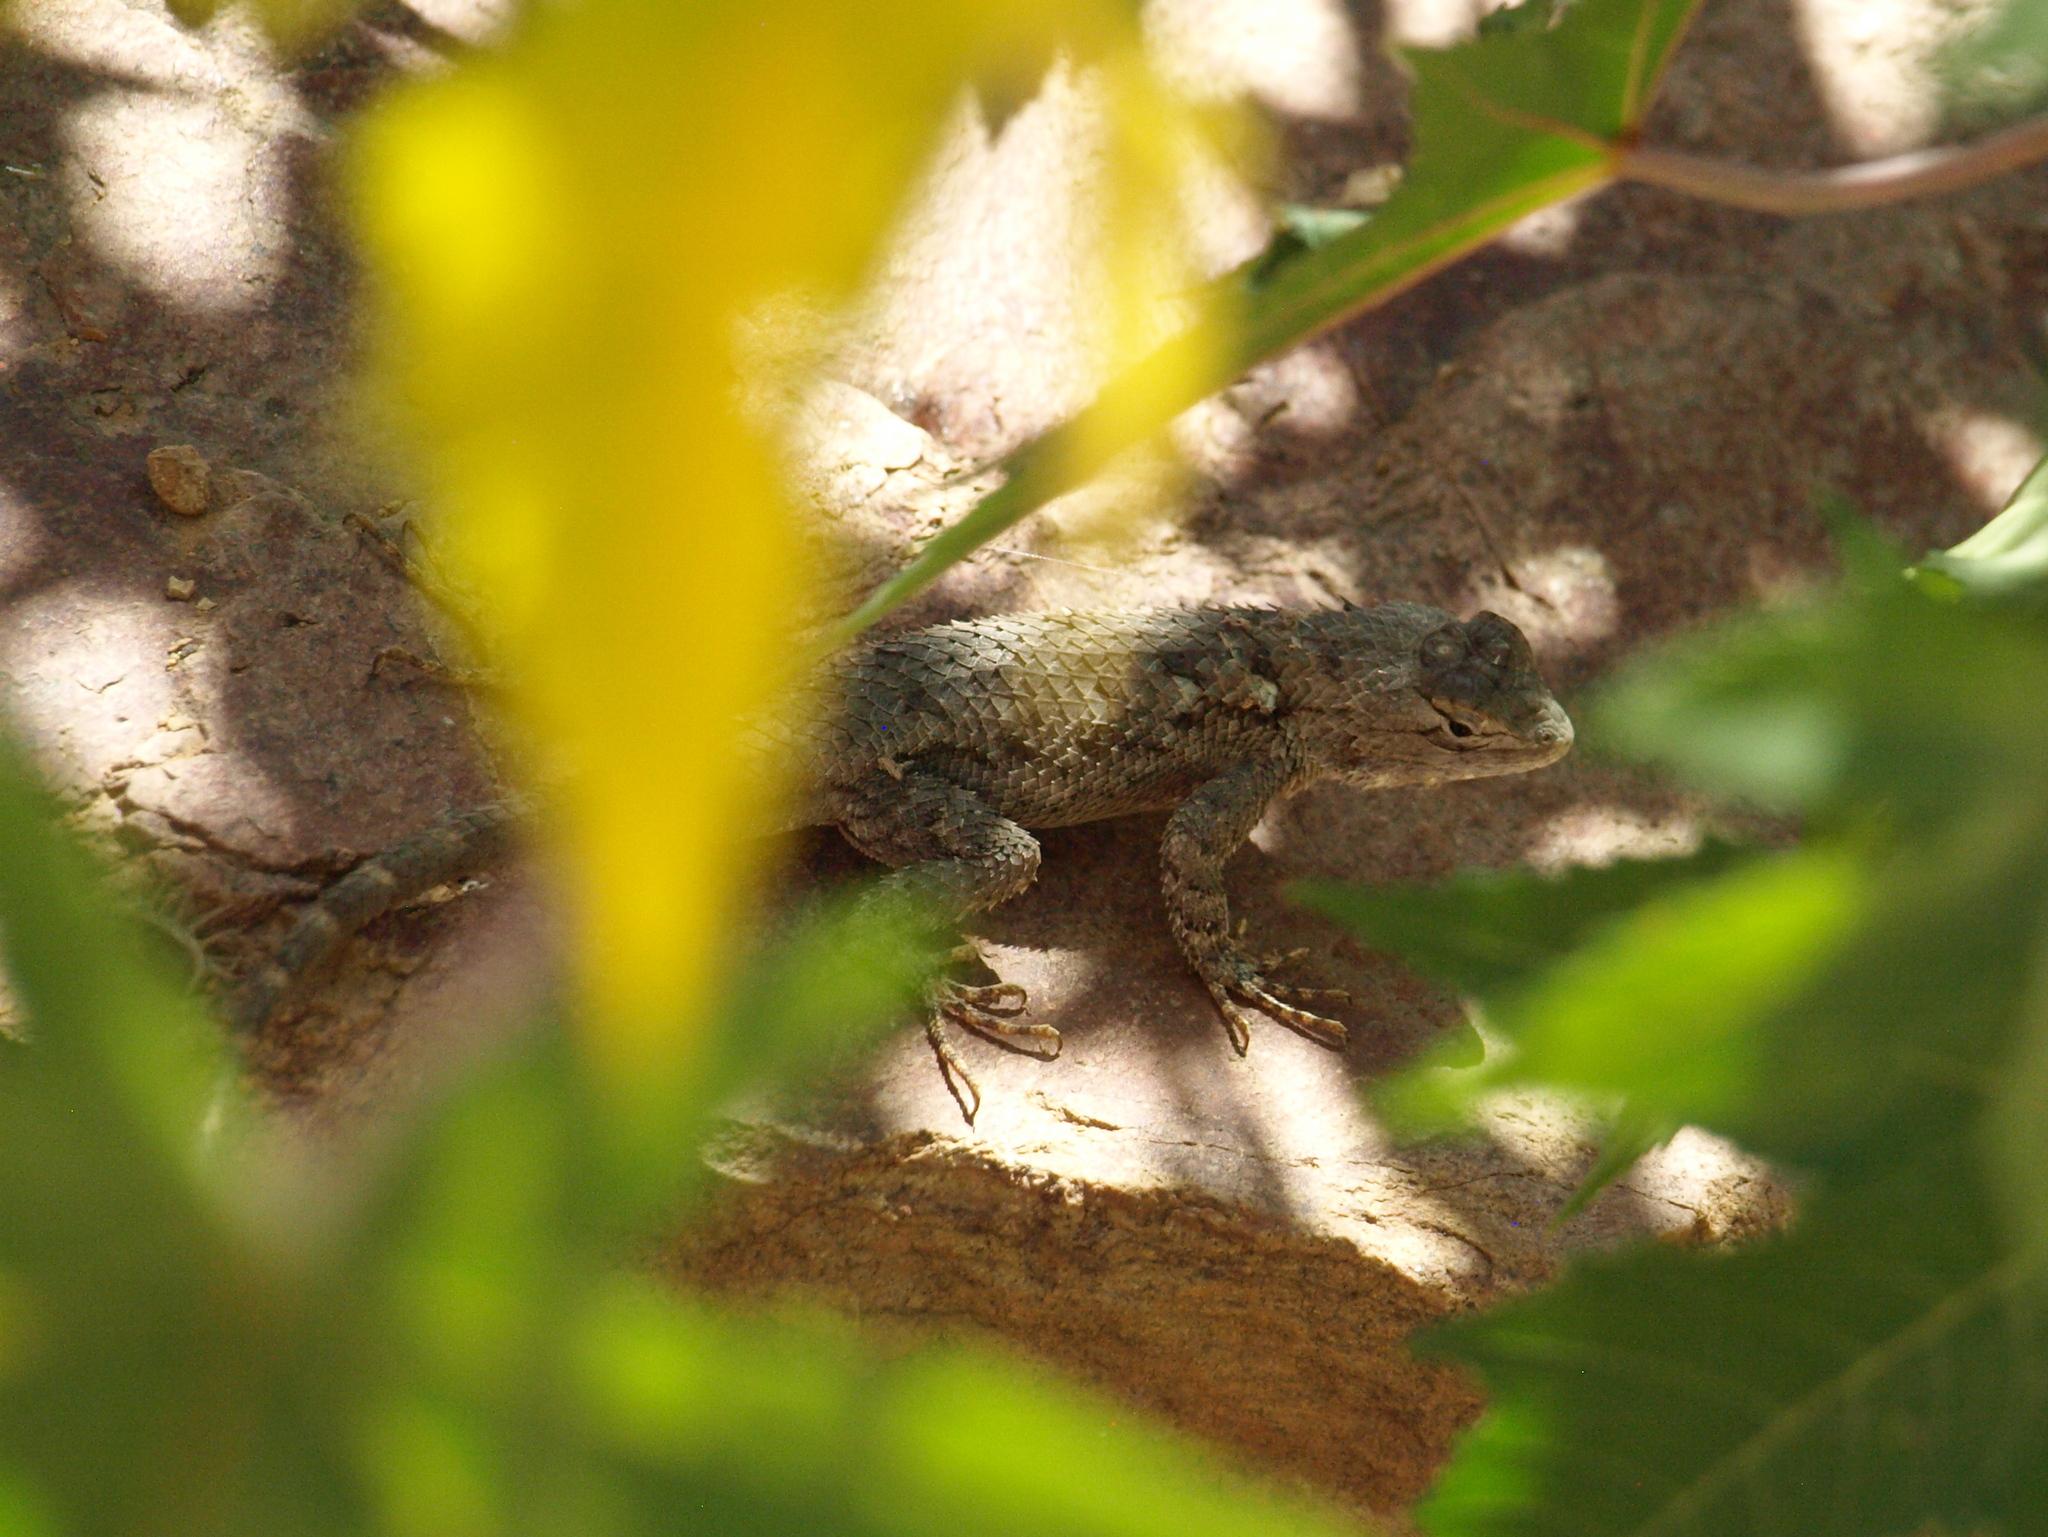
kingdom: Animalia
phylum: Chordata
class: Squamata
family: Phrynosomatidae
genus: Sceloporus
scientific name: Sceloporus clarkii
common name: Clark's spiny lizard
